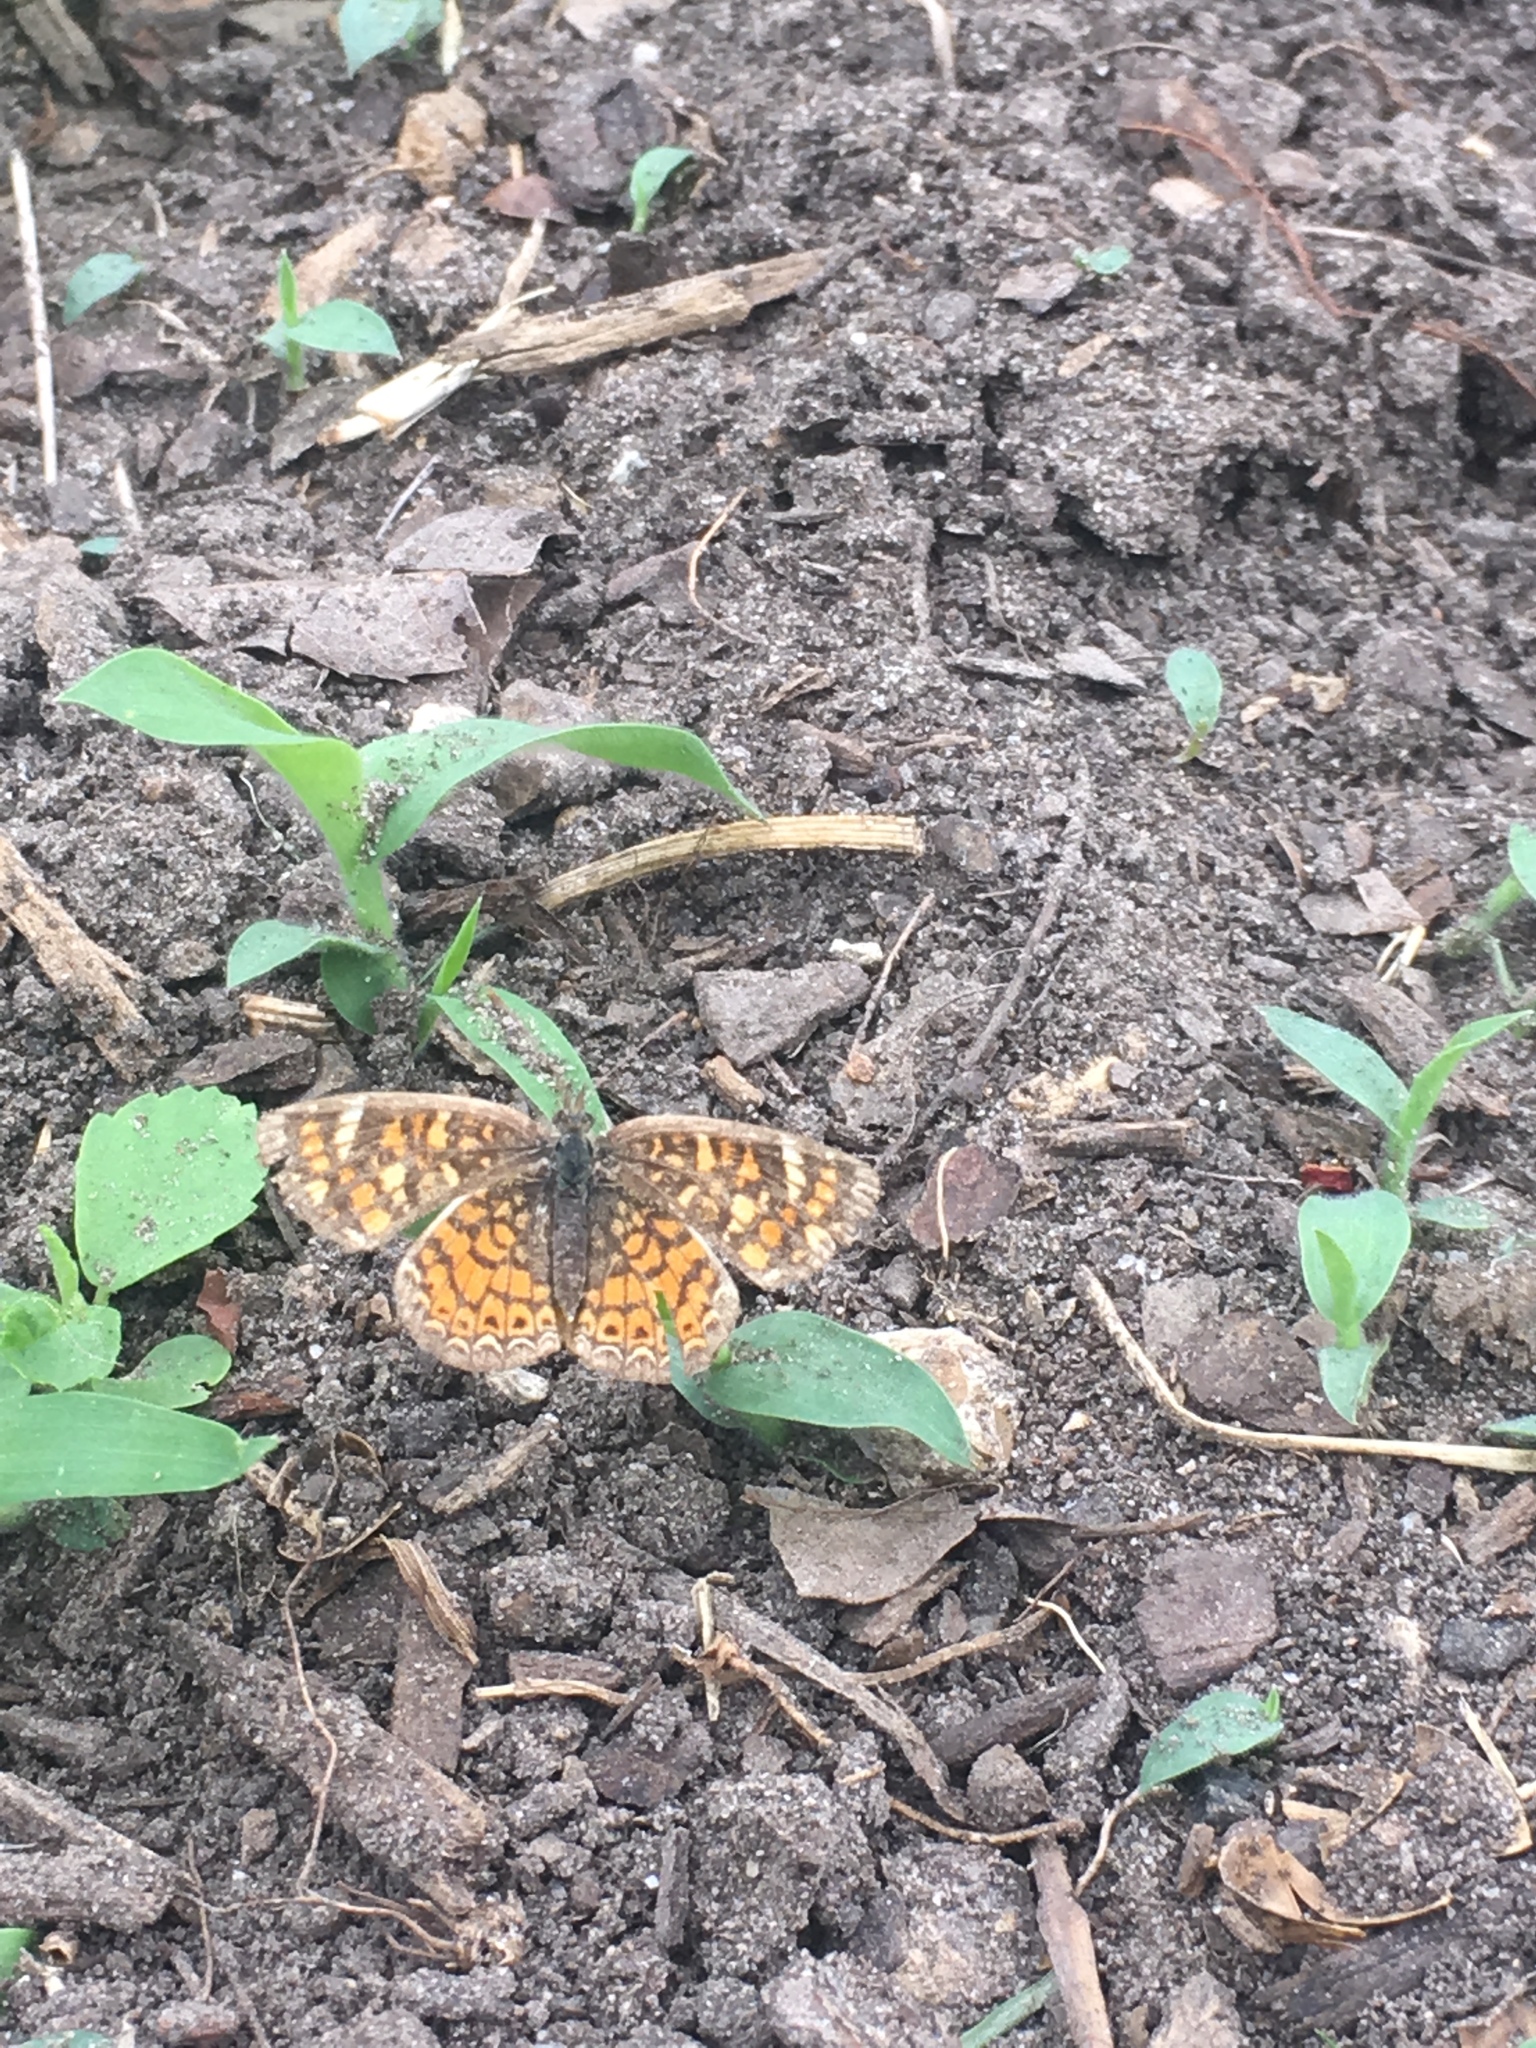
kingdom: Animalia
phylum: Arthropoda
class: Insecta
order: Lepidoptera
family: Nymphalidae
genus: Phyciodes
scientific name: Phyciodes vesta
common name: Vesta crescent
